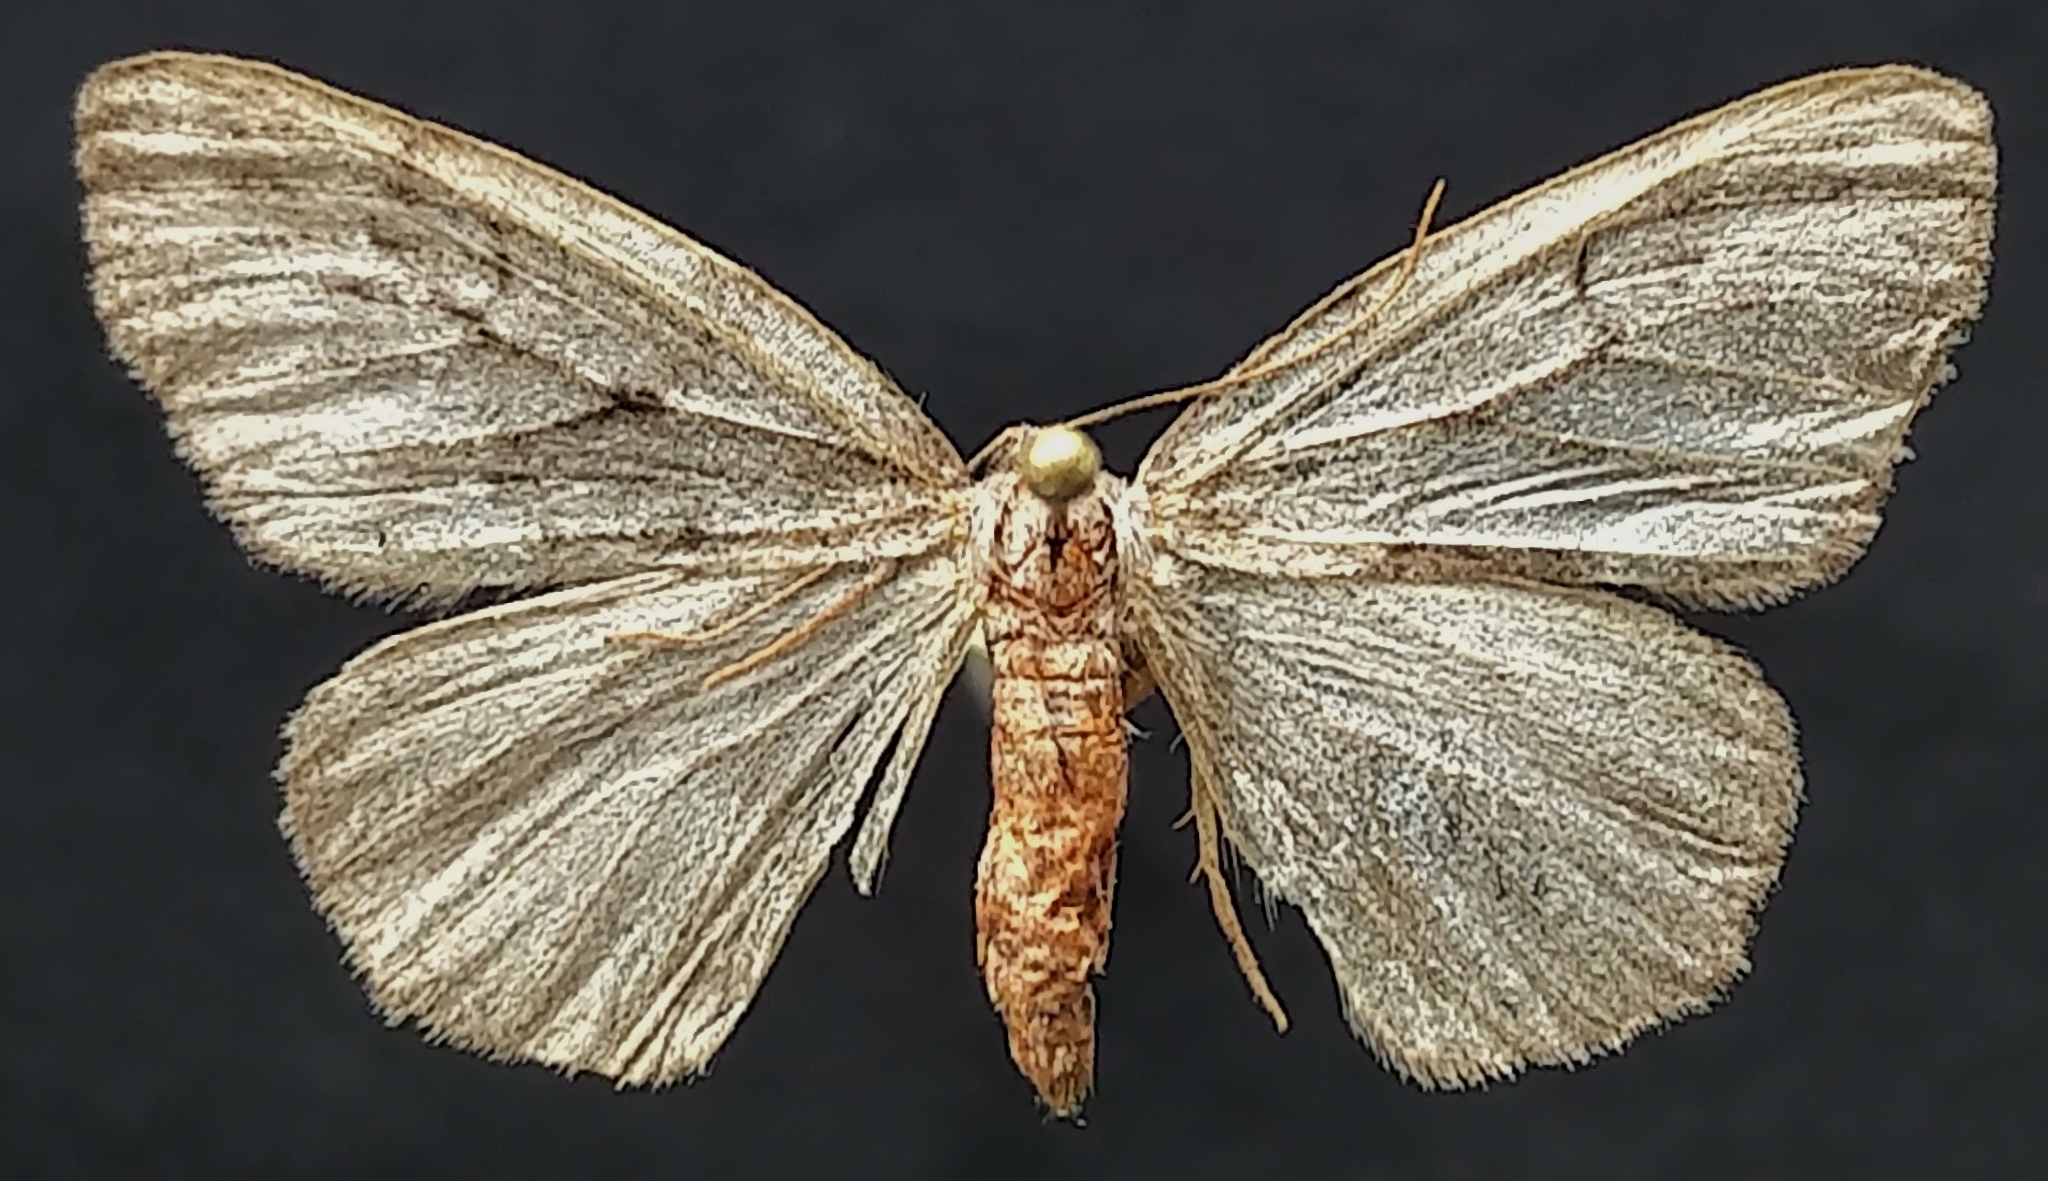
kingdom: Animalia
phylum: Arthropoda
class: Insecta
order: Lepidoptera
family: Geometridae
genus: Nepytia
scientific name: Nepytia umbrosaria
